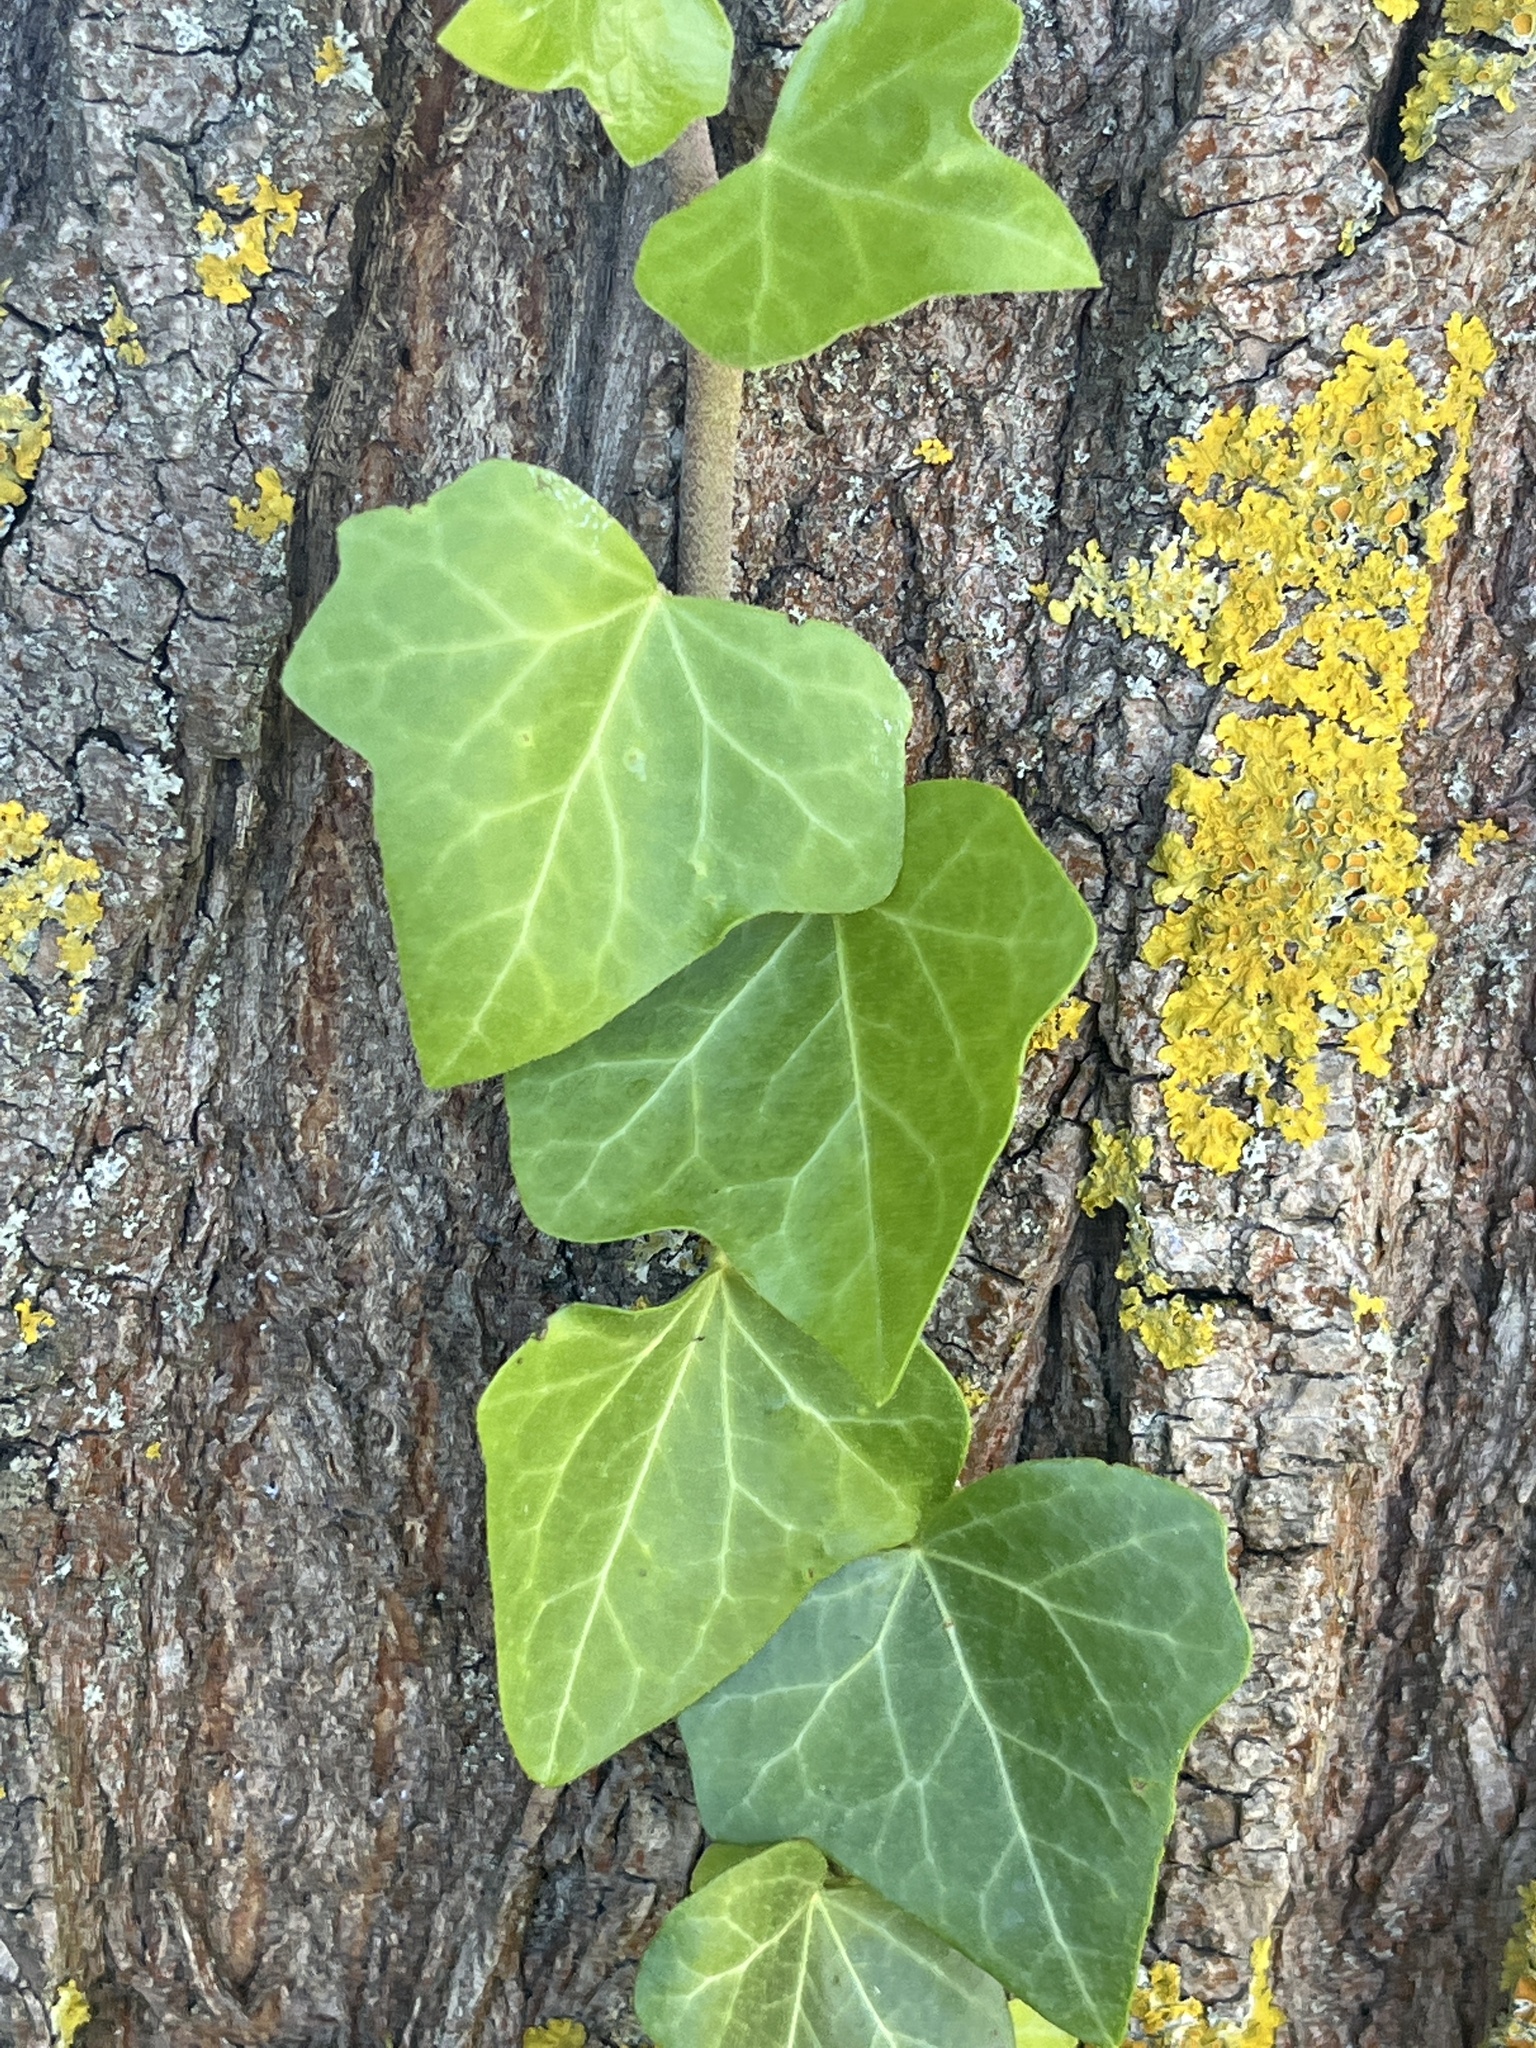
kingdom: Plantae
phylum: Tracheophyta
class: Magnoliopsida
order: Apiales
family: Araliaceae
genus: Hedera
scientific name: Hedera helix
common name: Ivy
